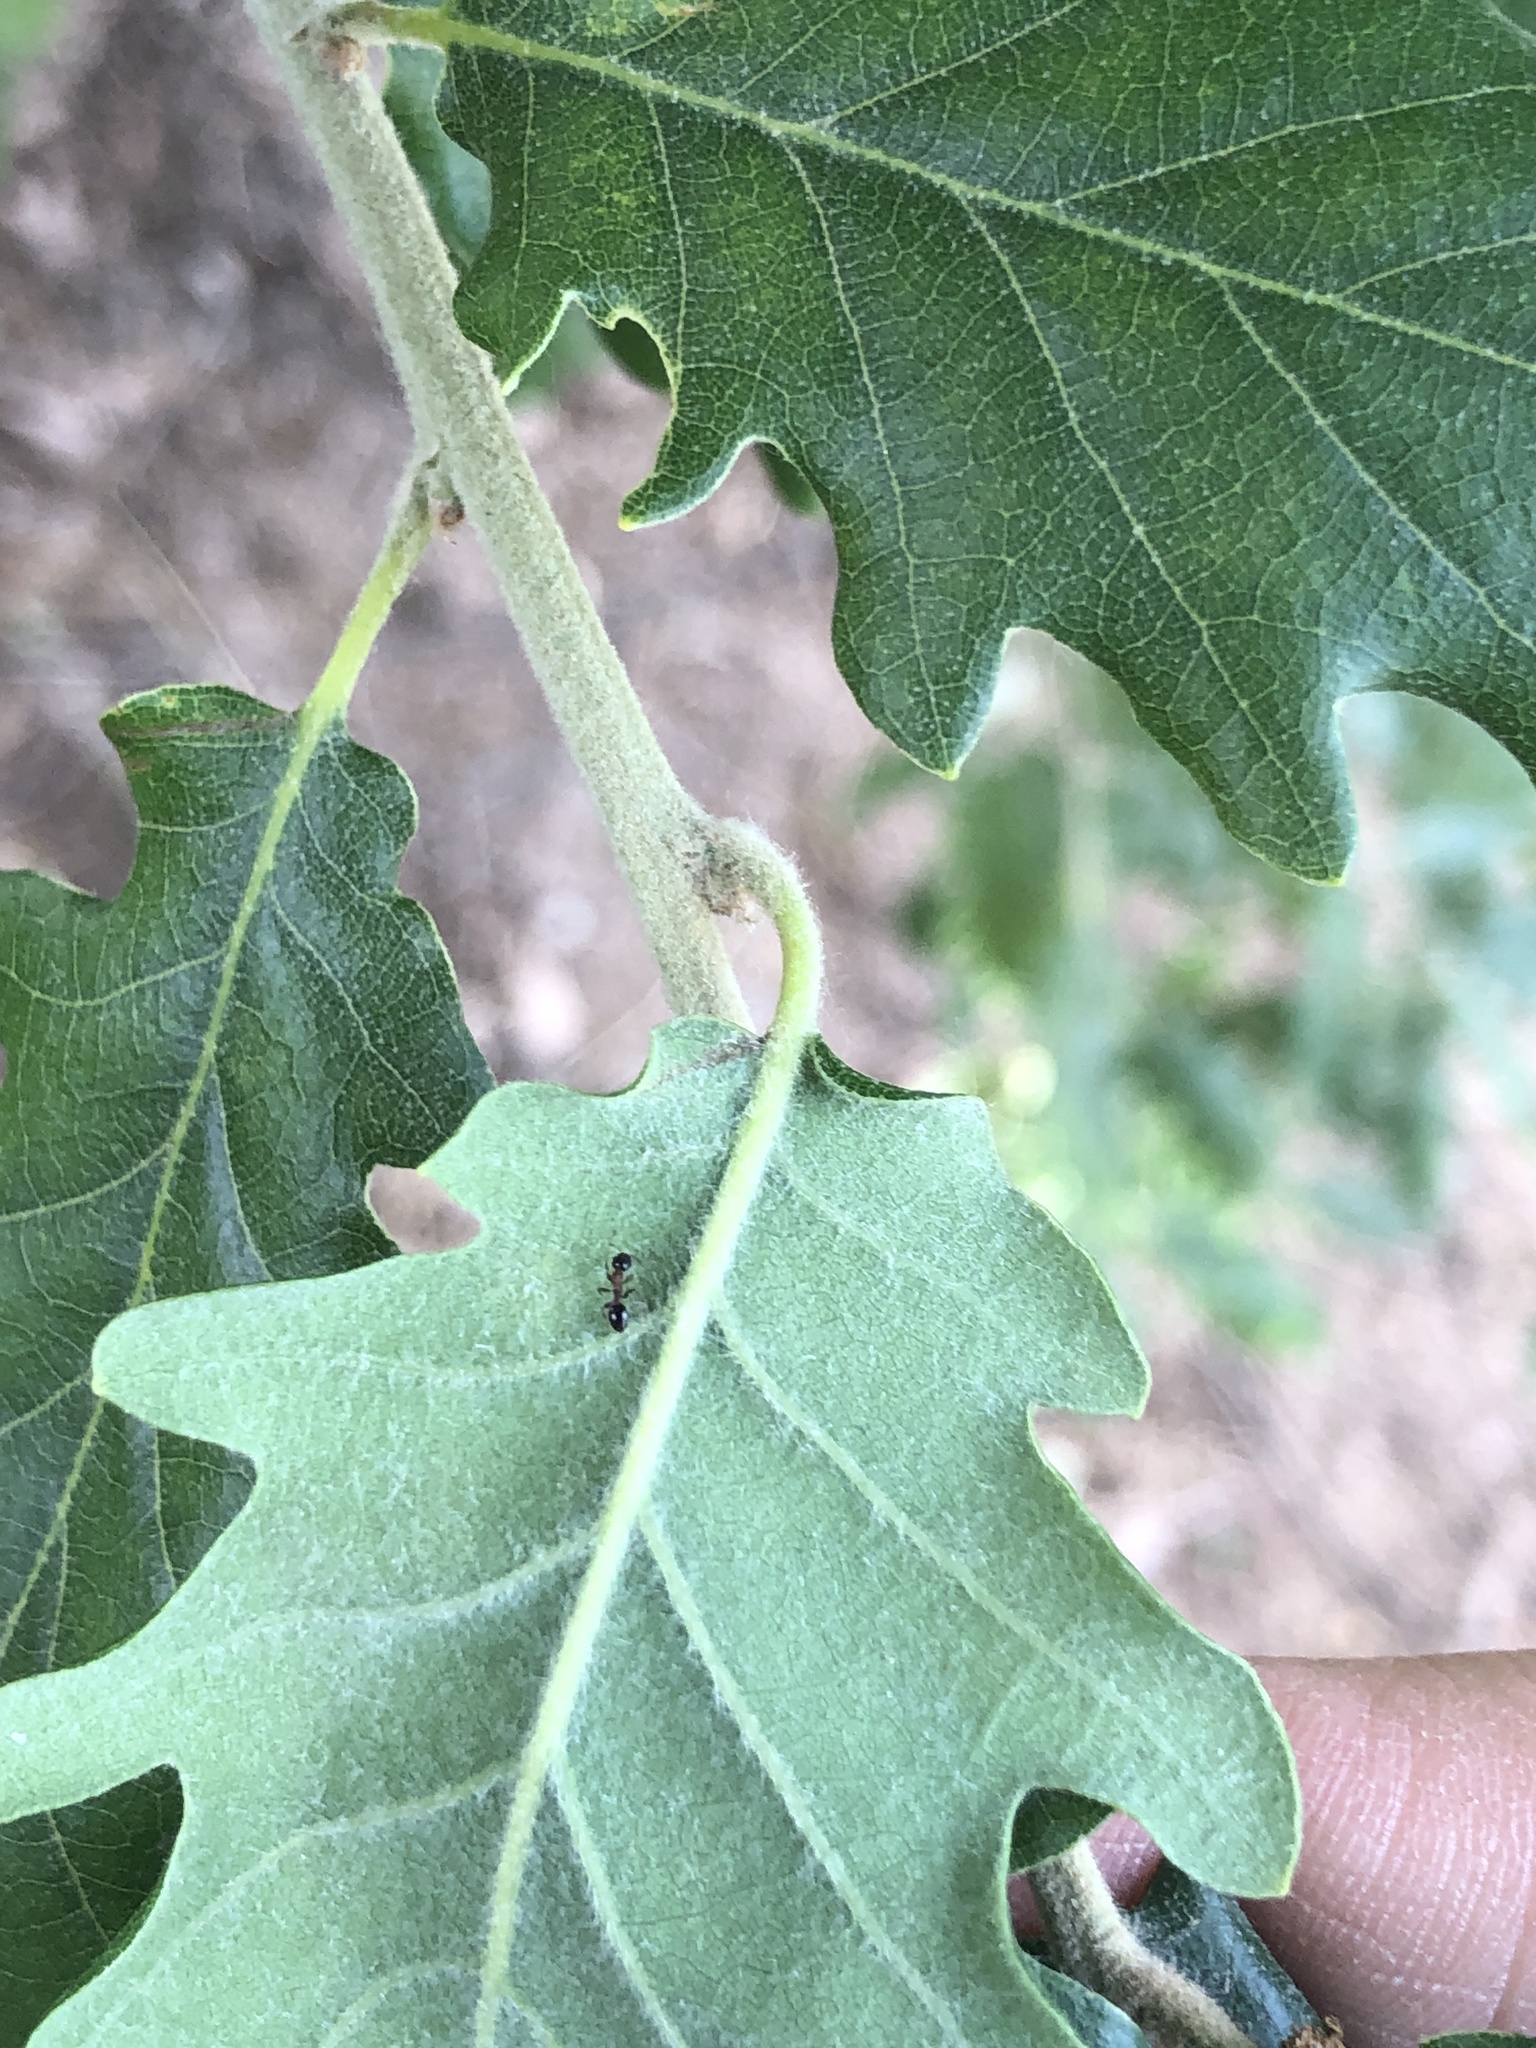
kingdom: Plantae
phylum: Tracheophyta
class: Magnoliopsida
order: Fagales
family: Fagaceae
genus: Quercus
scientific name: Quercus pubescens
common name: Downy oak
